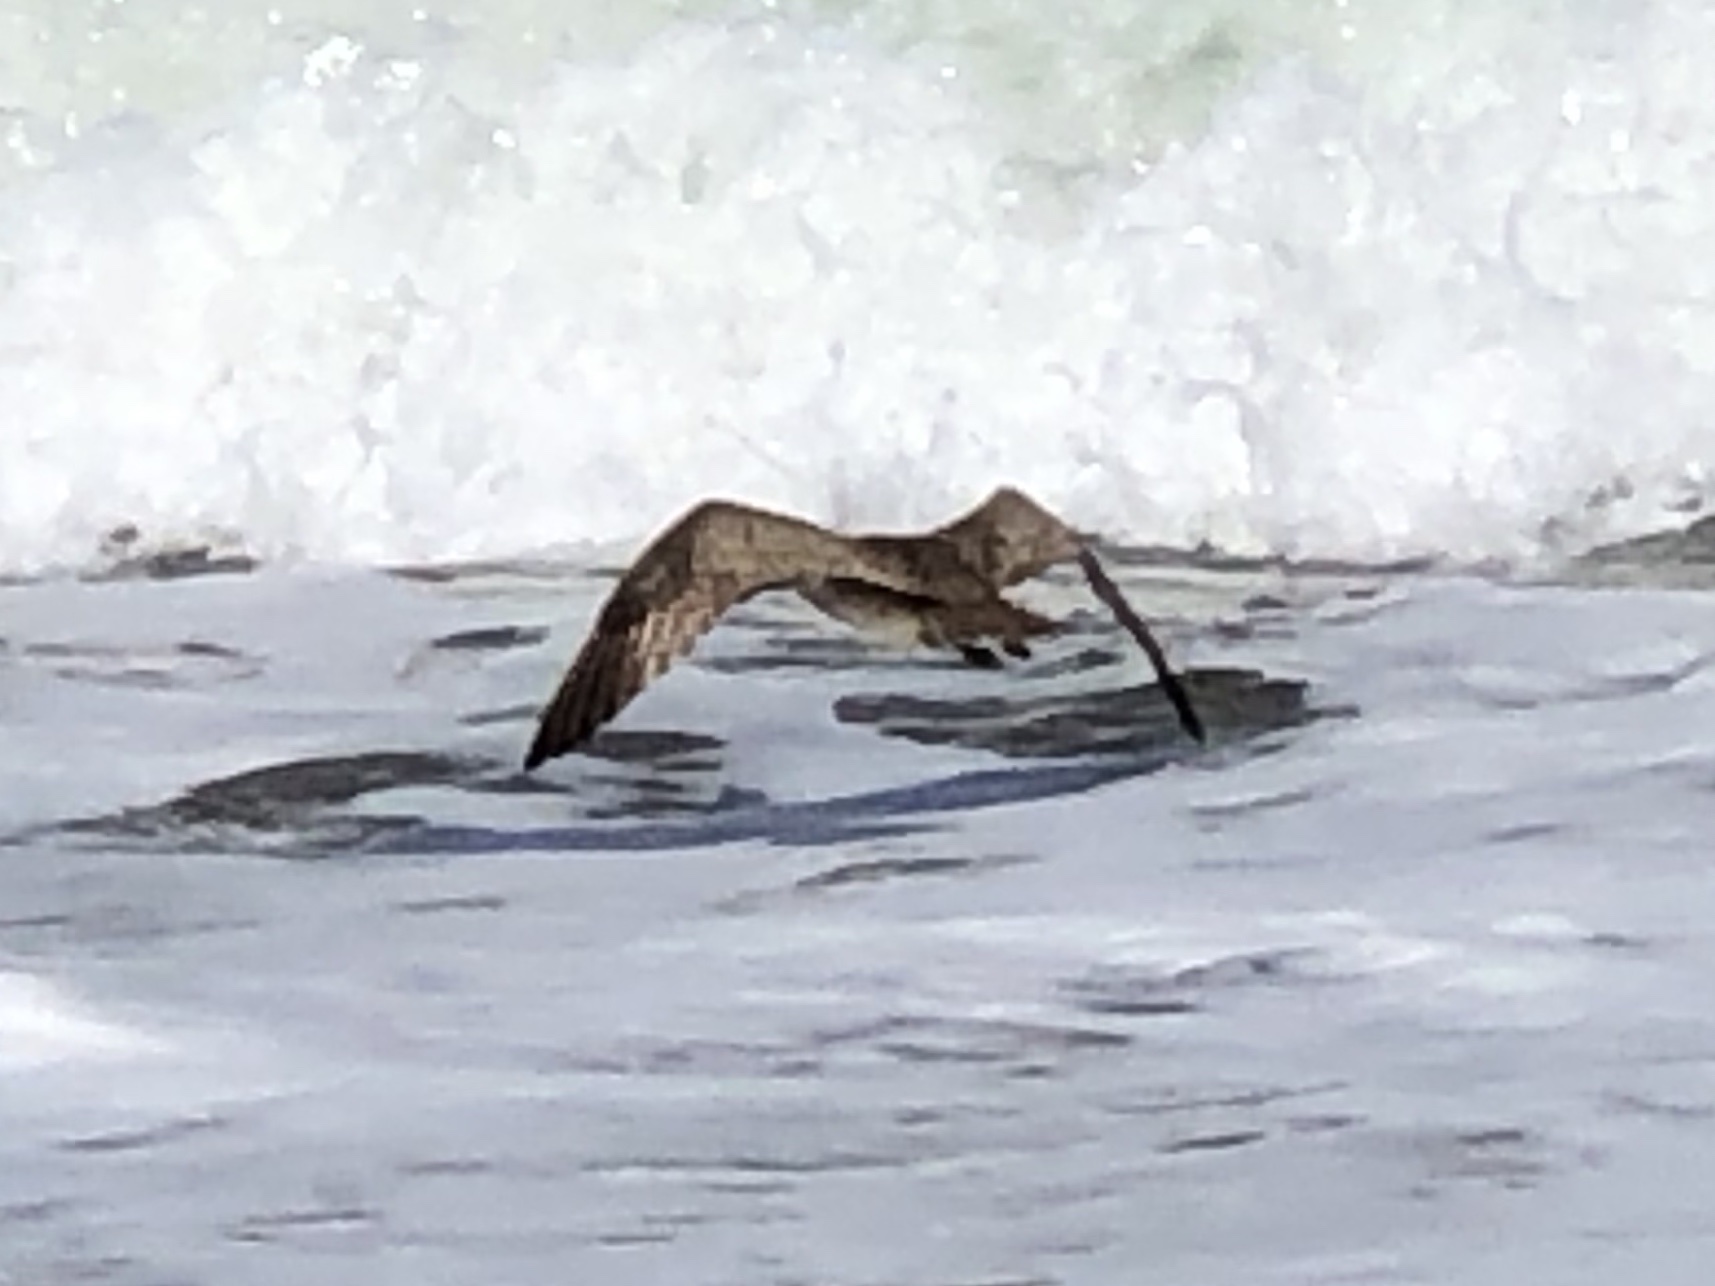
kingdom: Animalia
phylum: Chordata
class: Aves
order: Charadriiformes
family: Scolopacidae
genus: Numenius
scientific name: Numenius phaeopus
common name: Whimbrel
